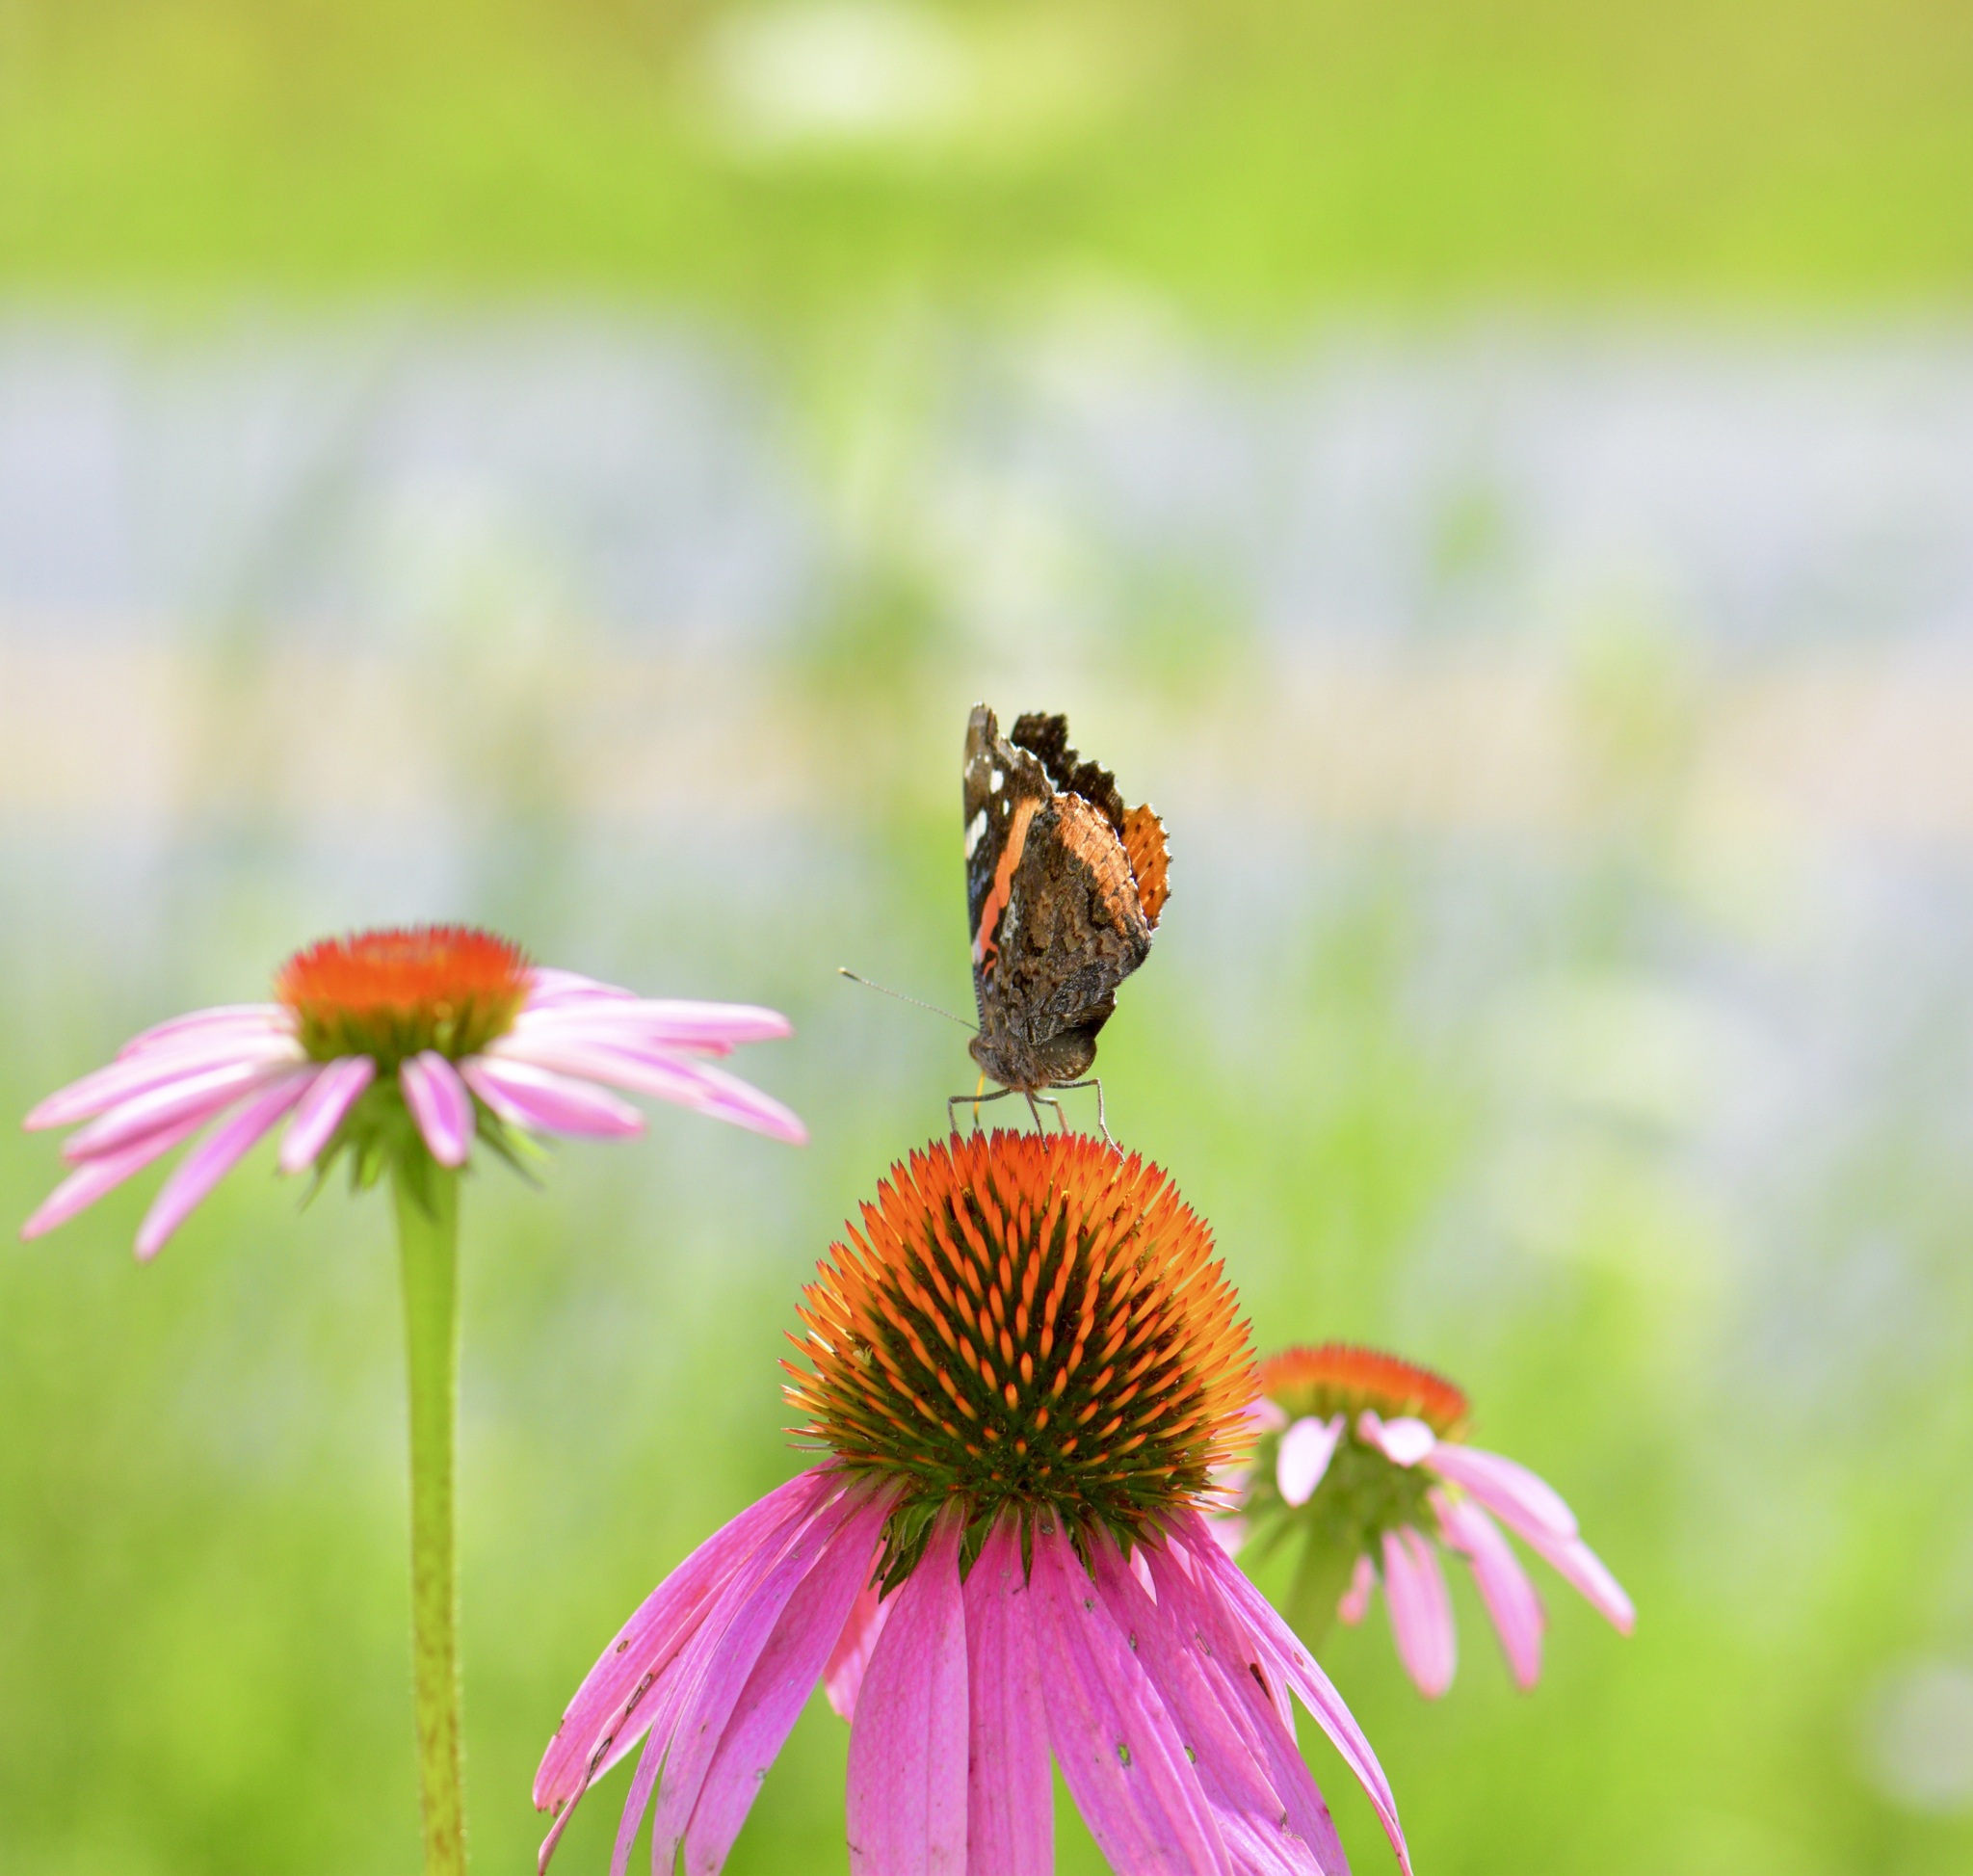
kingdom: Animalia
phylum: Arthropoda
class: Insecta
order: Lepidoptera
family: Nymphalidae
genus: Vanessa
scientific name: Vanessa atalanta
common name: Red admiral
